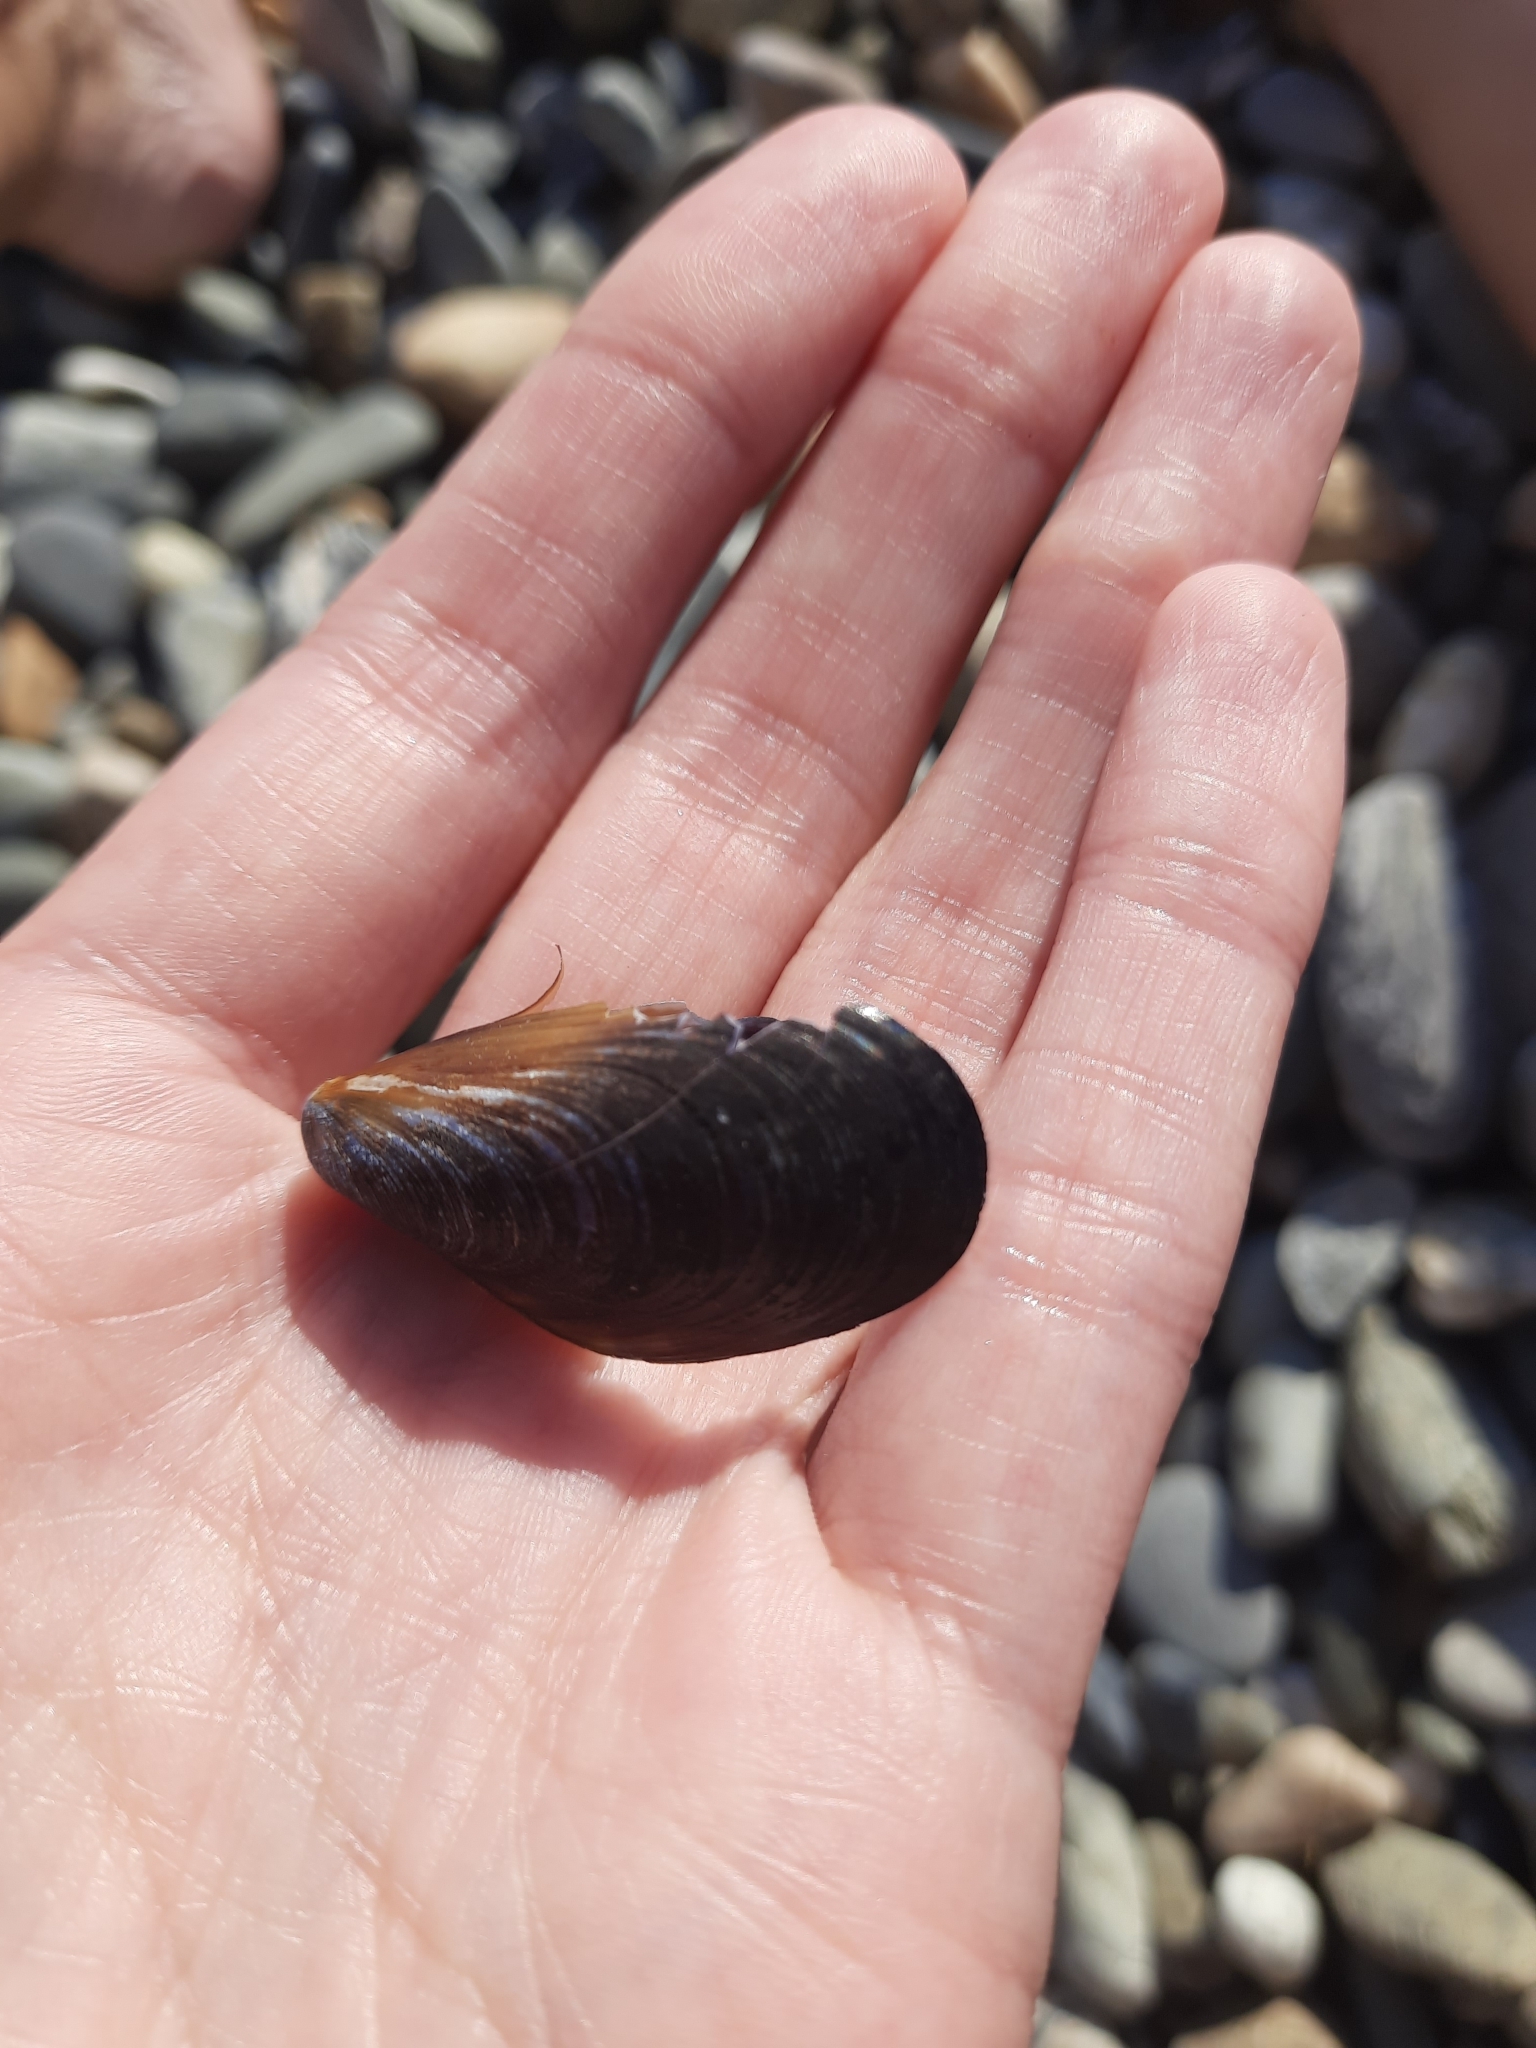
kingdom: Animalia
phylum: Mollusca
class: Bivalvia
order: Mytilida
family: Mytilidae
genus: Mytilus
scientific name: Mytilus galloprovincialis
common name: Mediterranean mussel
